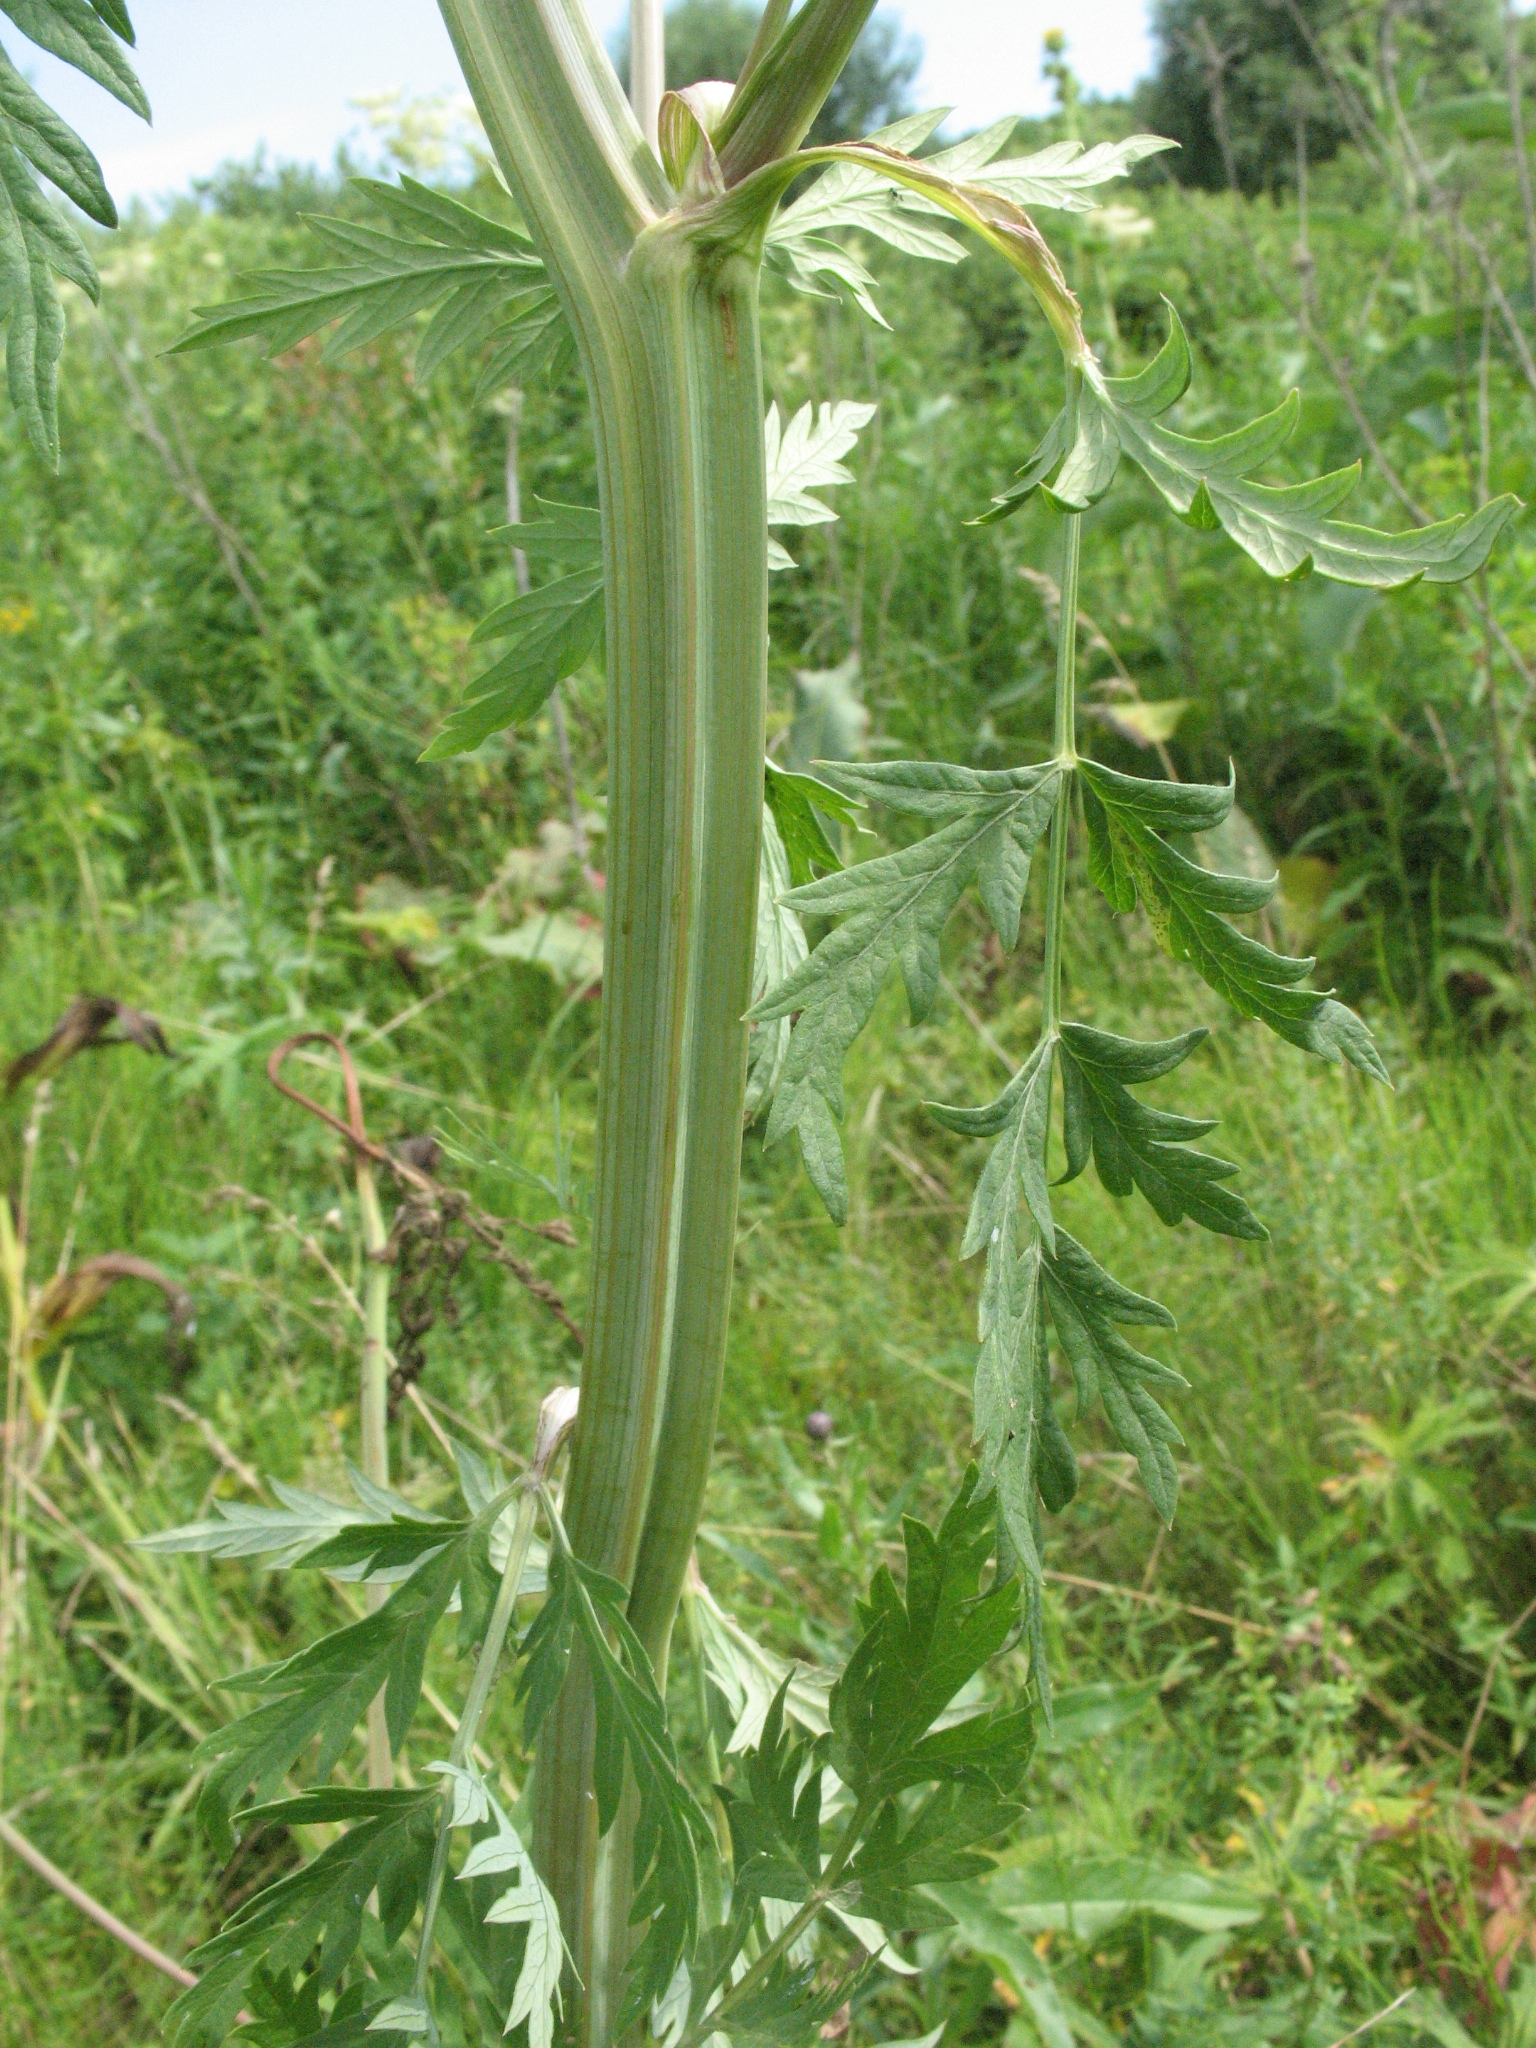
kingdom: Plantae
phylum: Tracheophyta
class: Magnoliopsida
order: Apiales
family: Apiaceae
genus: Seseli
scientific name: Seseli libanotis
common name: Mooncarrot
